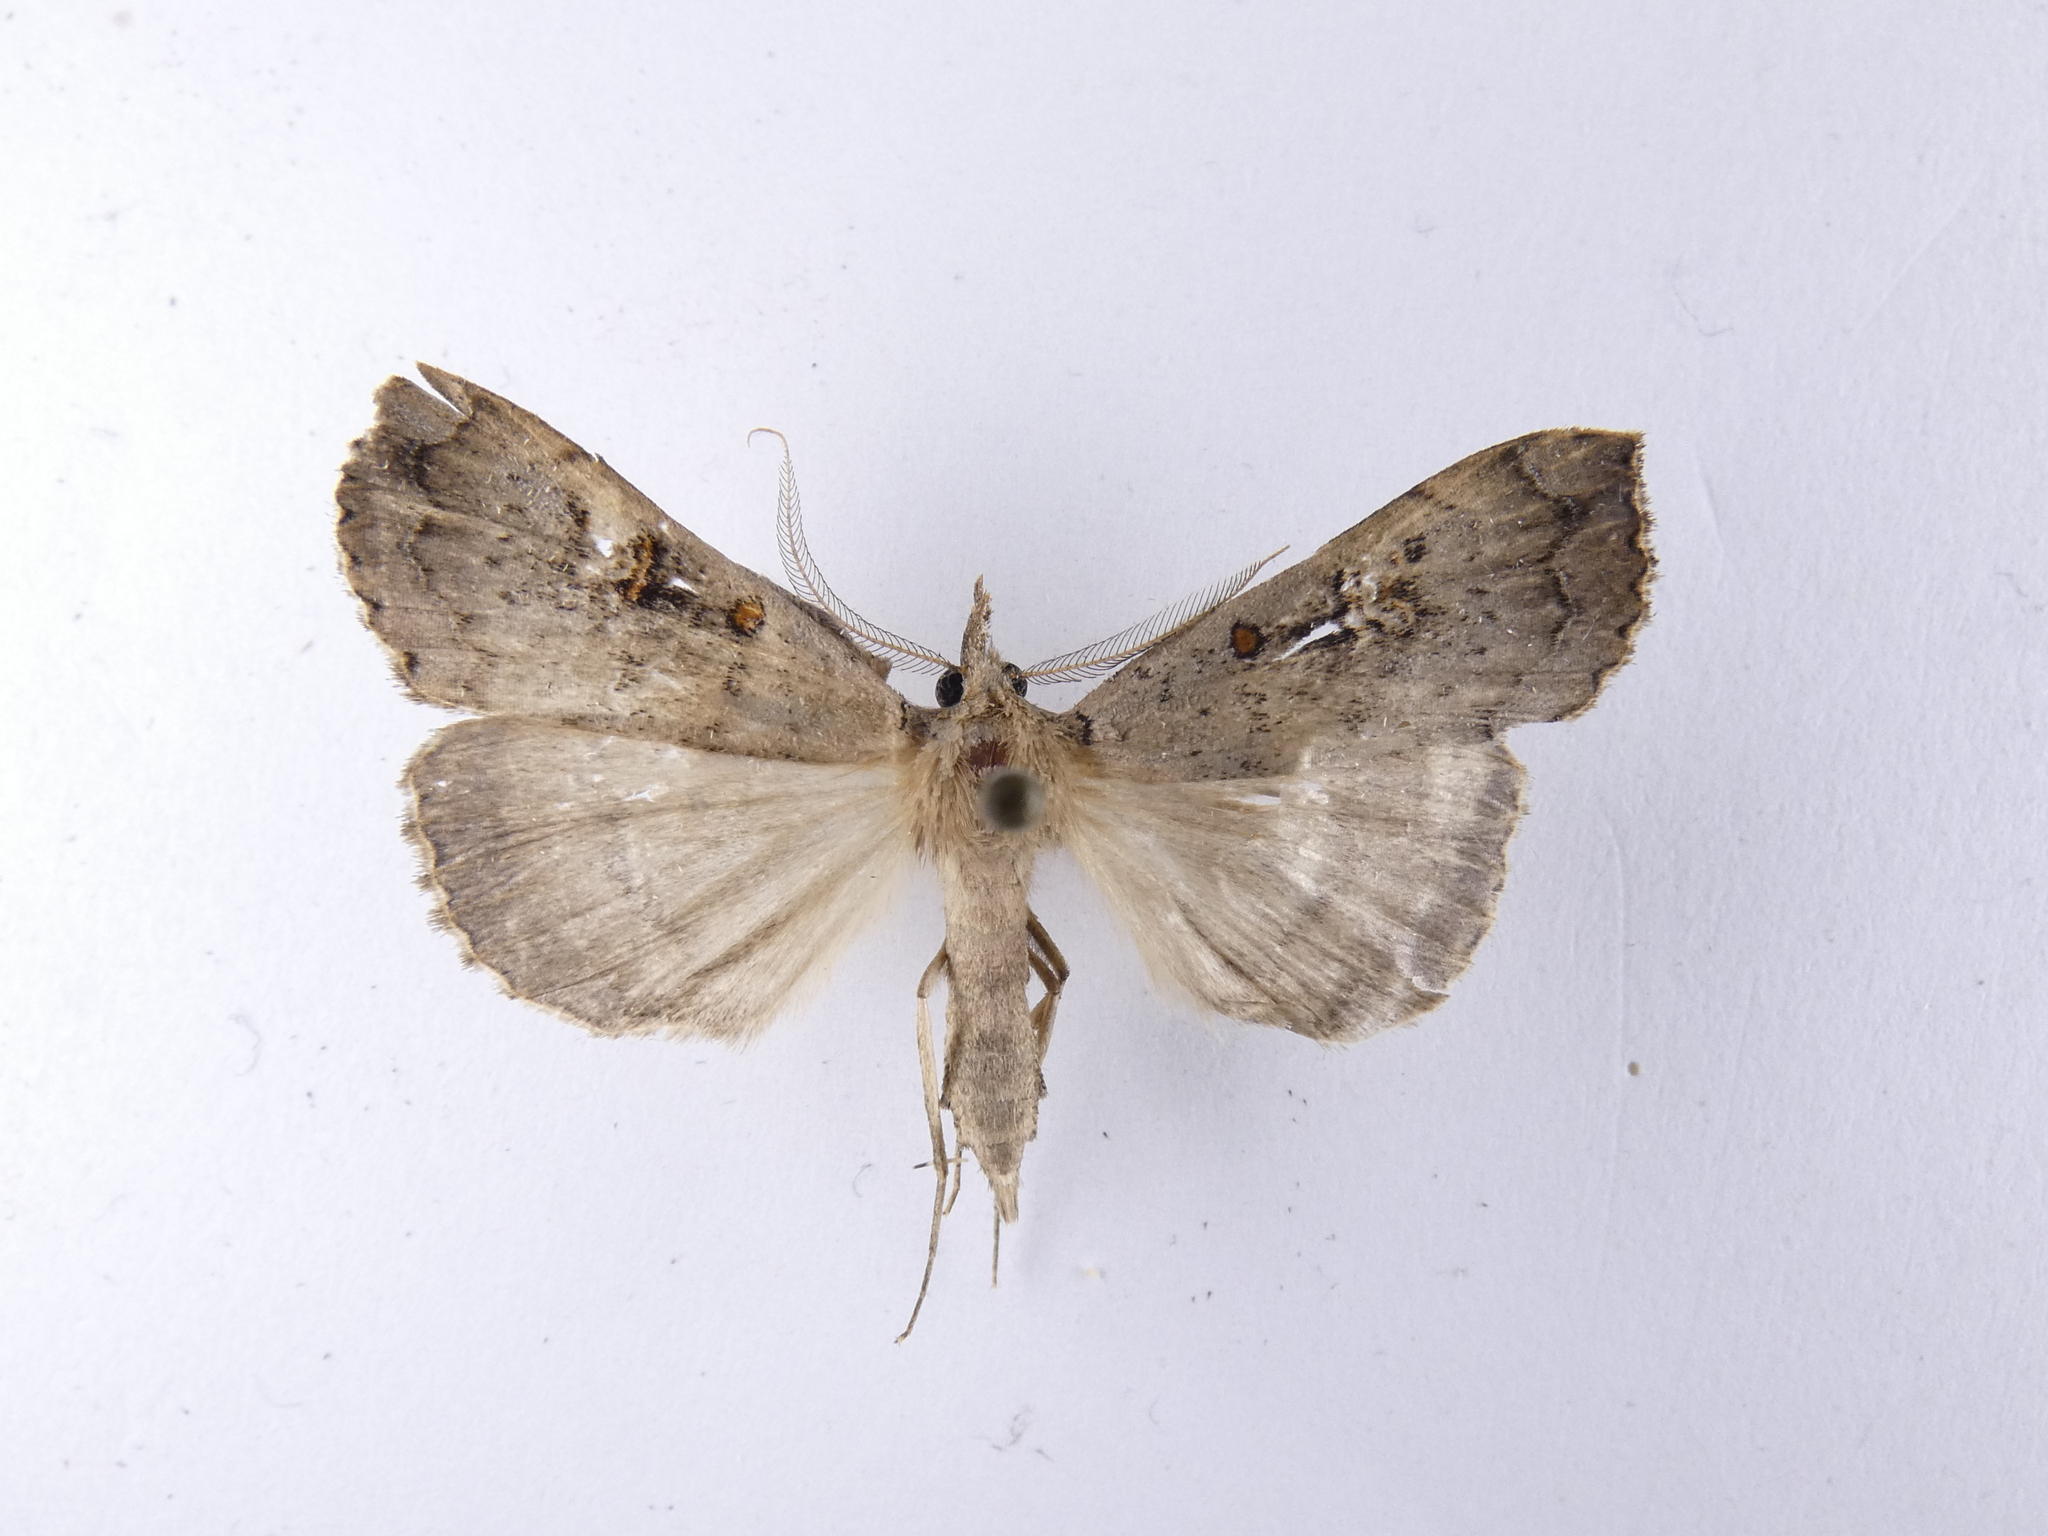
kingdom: Animalia
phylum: Arthropoda
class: Insecta
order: Lepidoptera
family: Erebidae
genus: Rhapsa
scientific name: Rhapsa scotosialis
